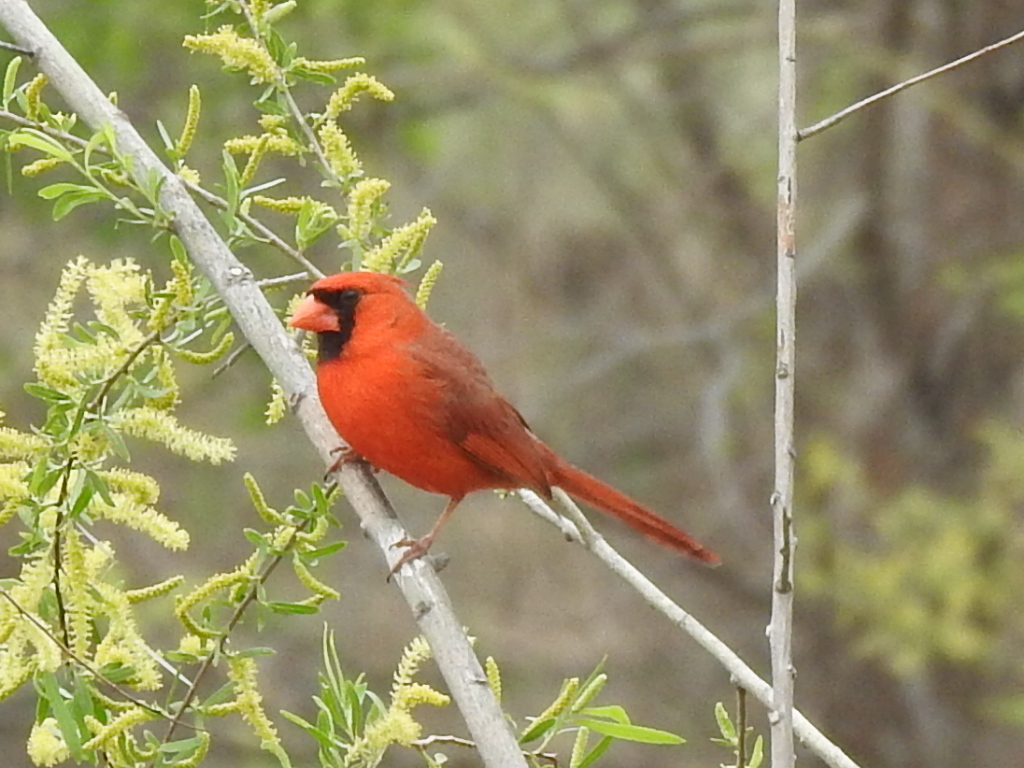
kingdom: Animalia
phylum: Chordata
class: Aves
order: Passeriformes
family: Cardinalidae
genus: Cardinalis
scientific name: Cardinalis cardinalis
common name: Northern cardinal
